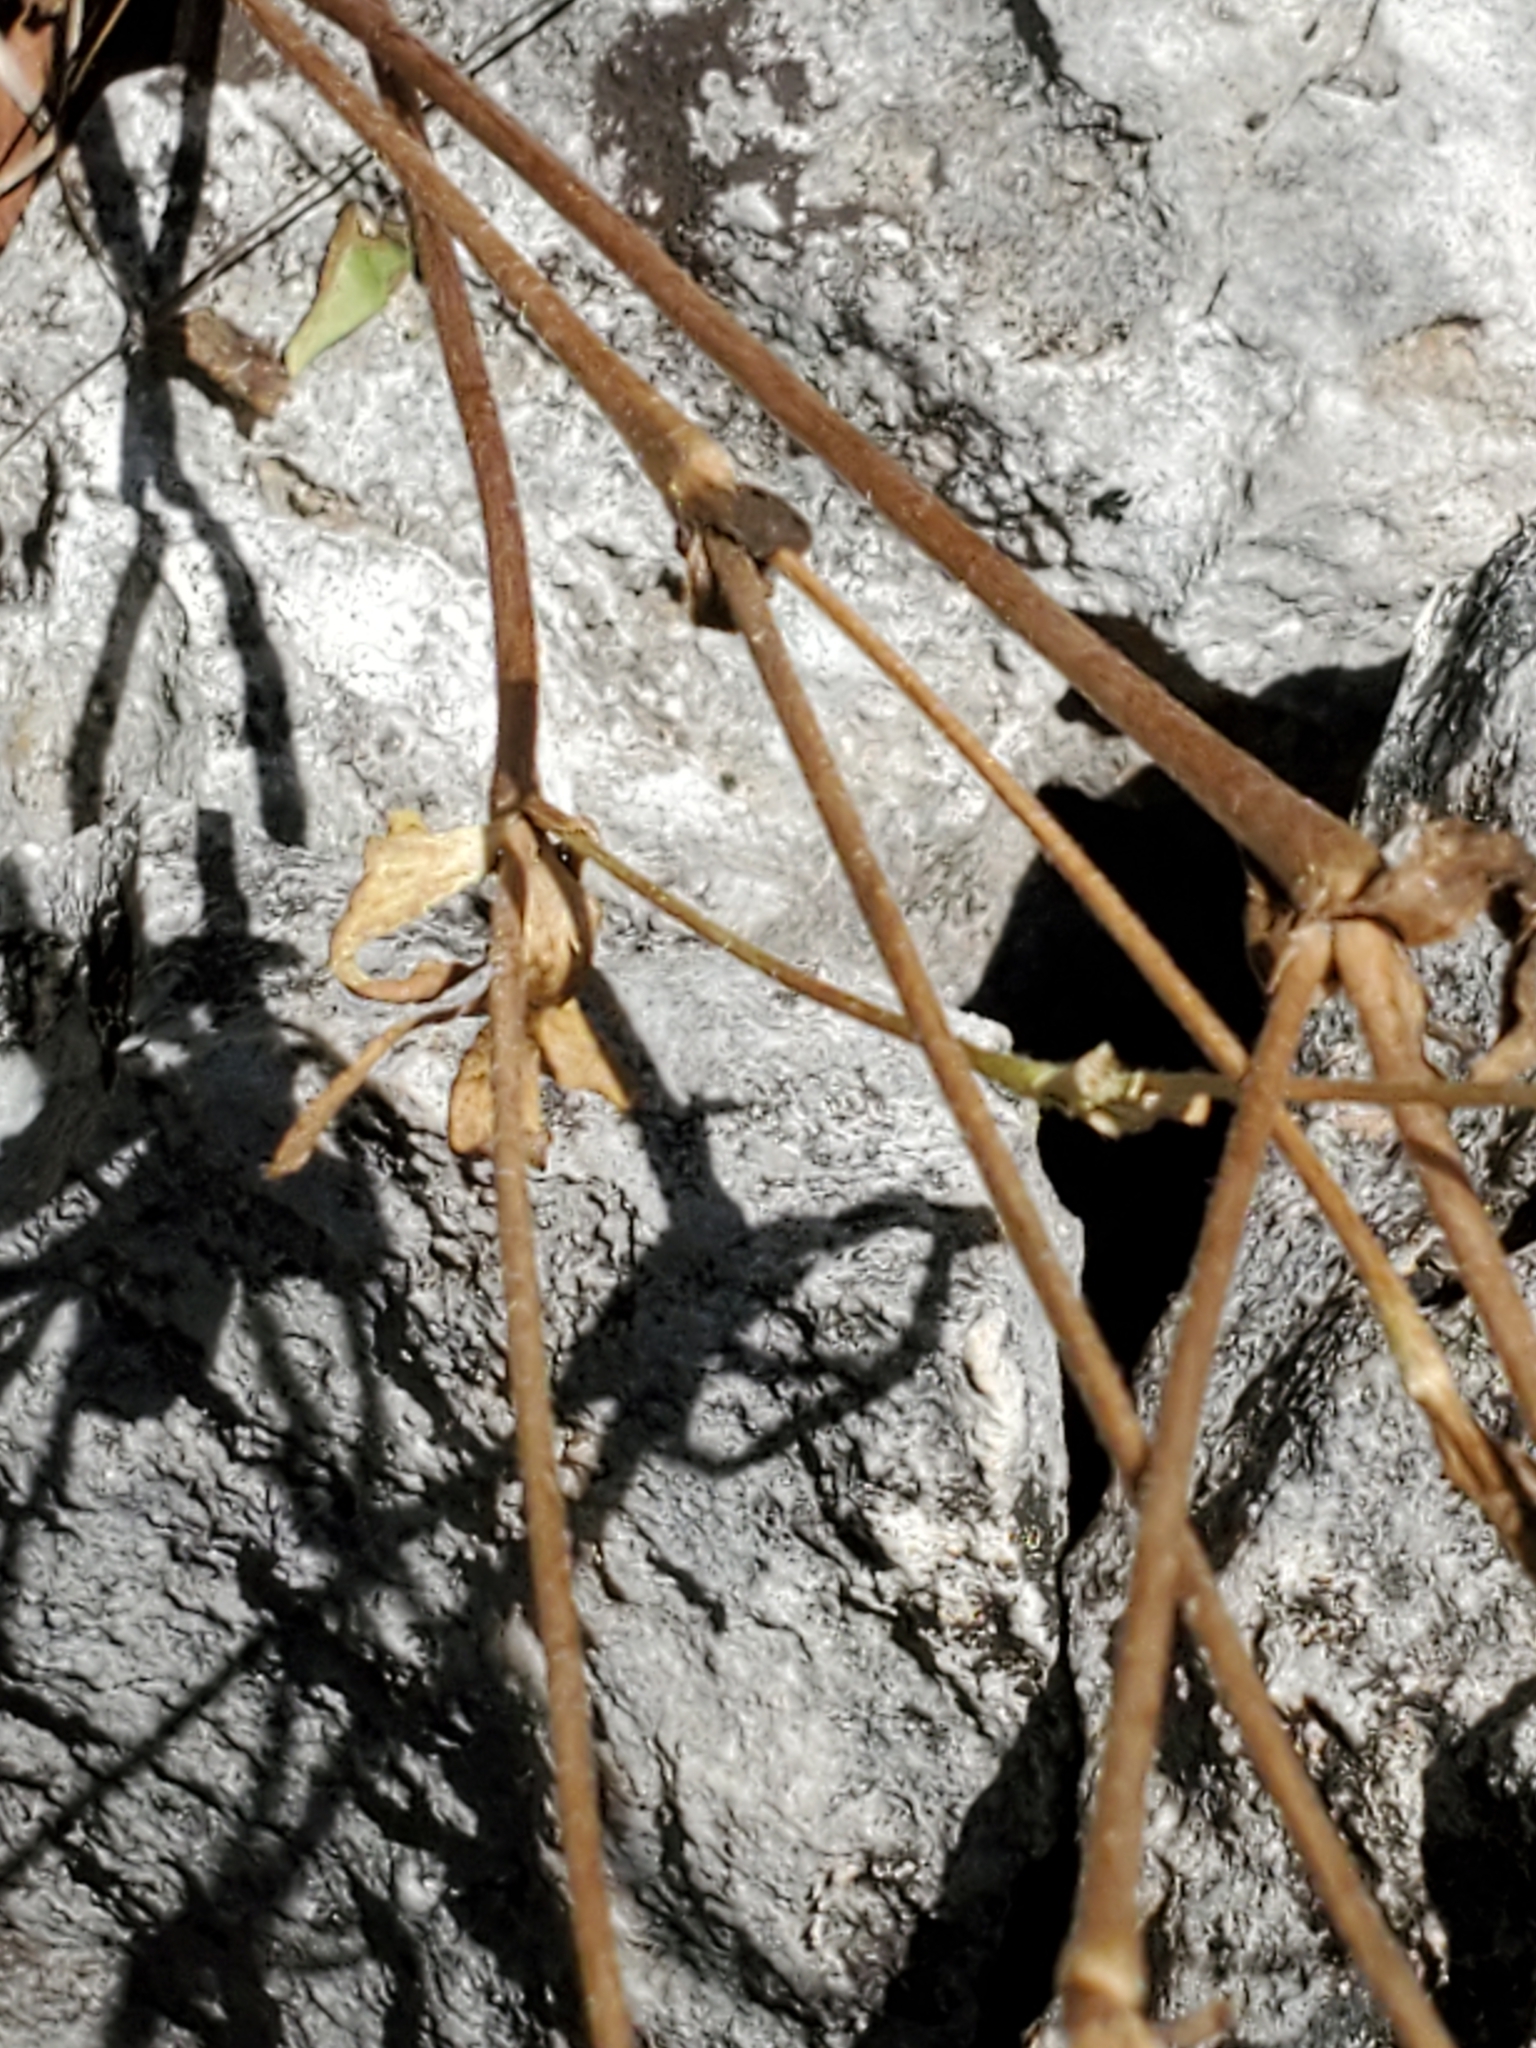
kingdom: Plantae
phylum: Tracheophyta
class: Magnoliopsida
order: Ranunculales
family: Ranunculaceae
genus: Anemone
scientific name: Anemone edwardsiana
